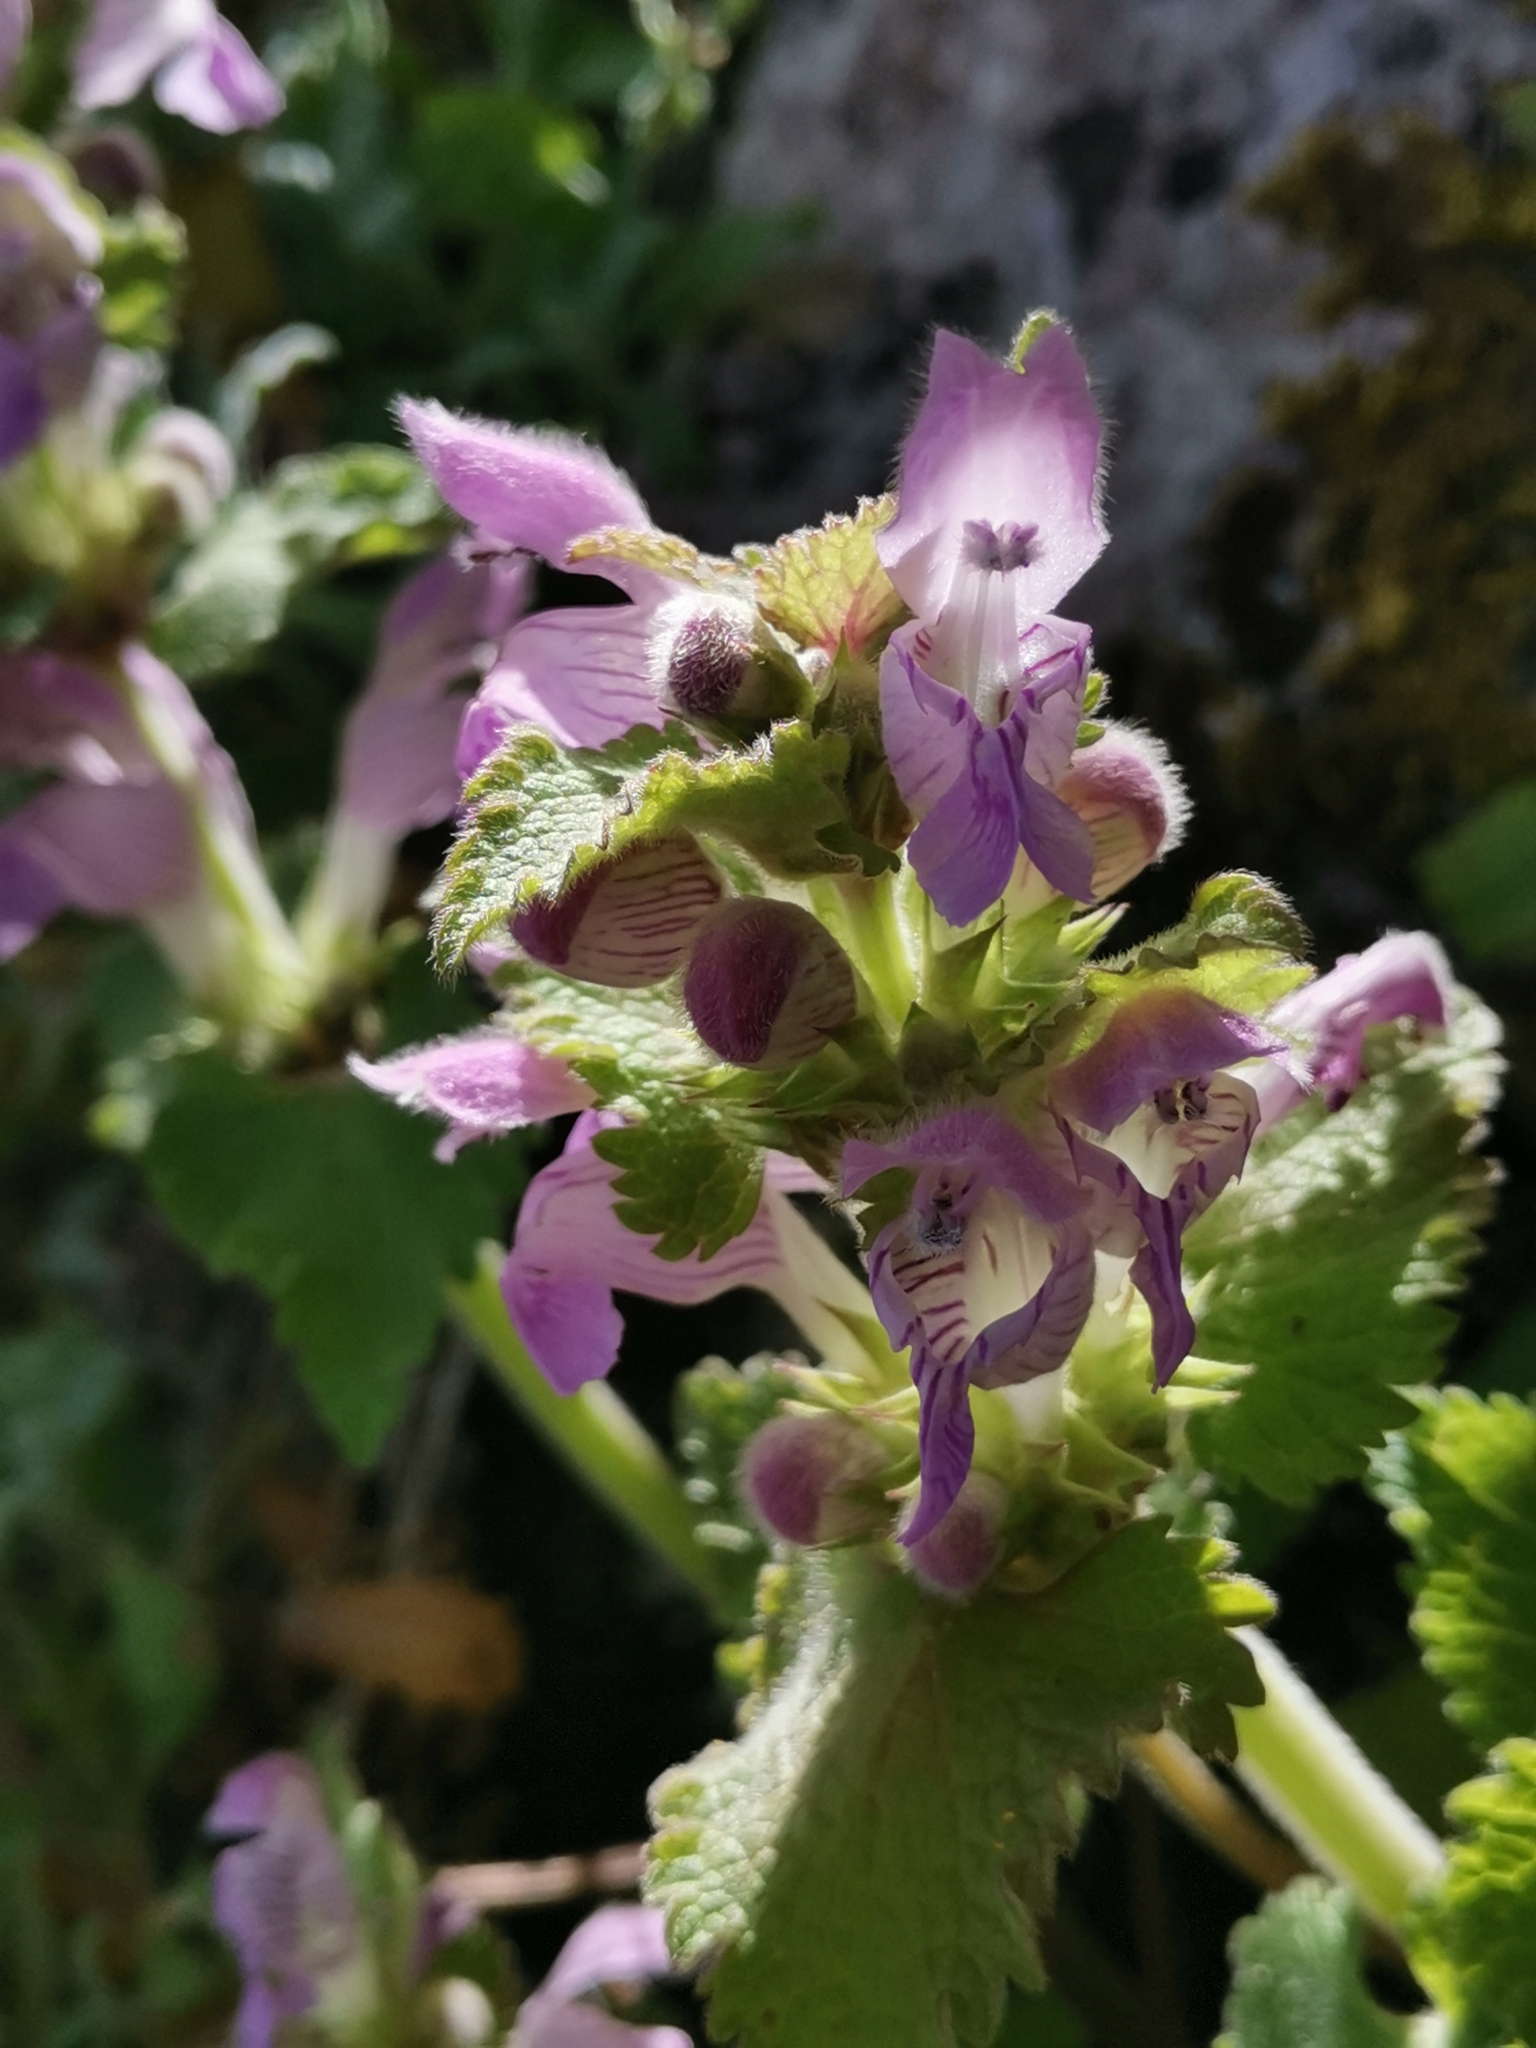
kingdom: Plantae
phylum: Tracheophyta
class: Magnoliopsida
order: Lamiales
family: Lamiaceae
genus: Lamium
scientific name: Lamium garganicum
